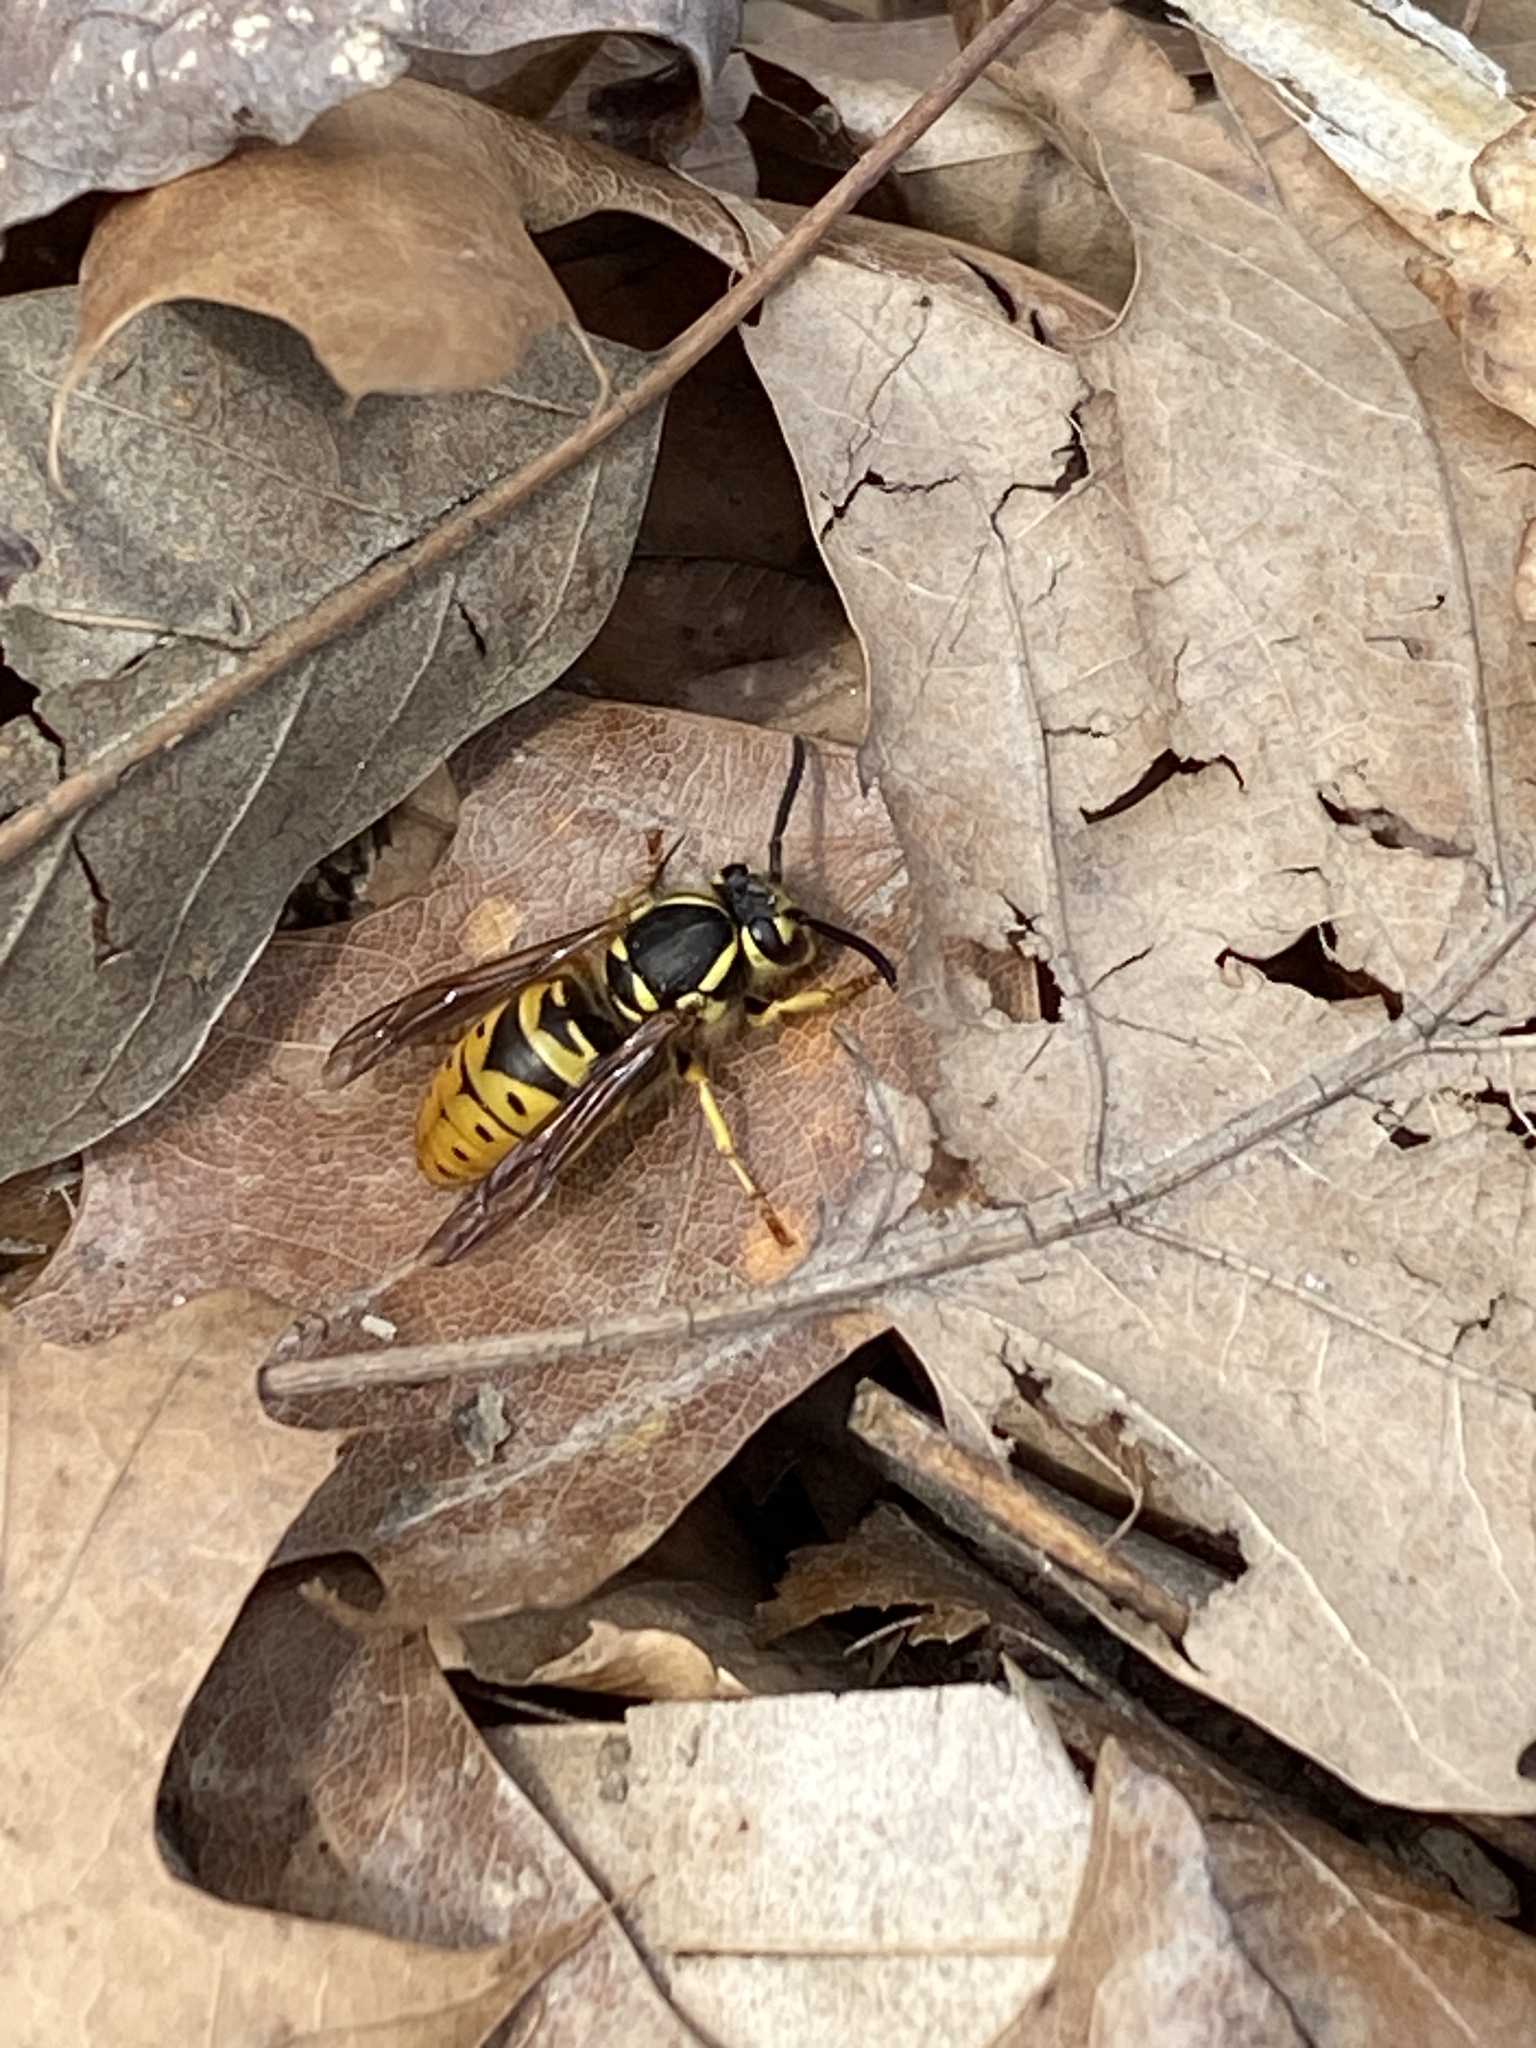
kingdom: Animalia
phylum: Arthropoda
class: Insecta
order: Hymenoptera
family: Vespidae
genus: Vespula
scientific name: Vespula maculifrons
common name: Eastern yellowjacket
